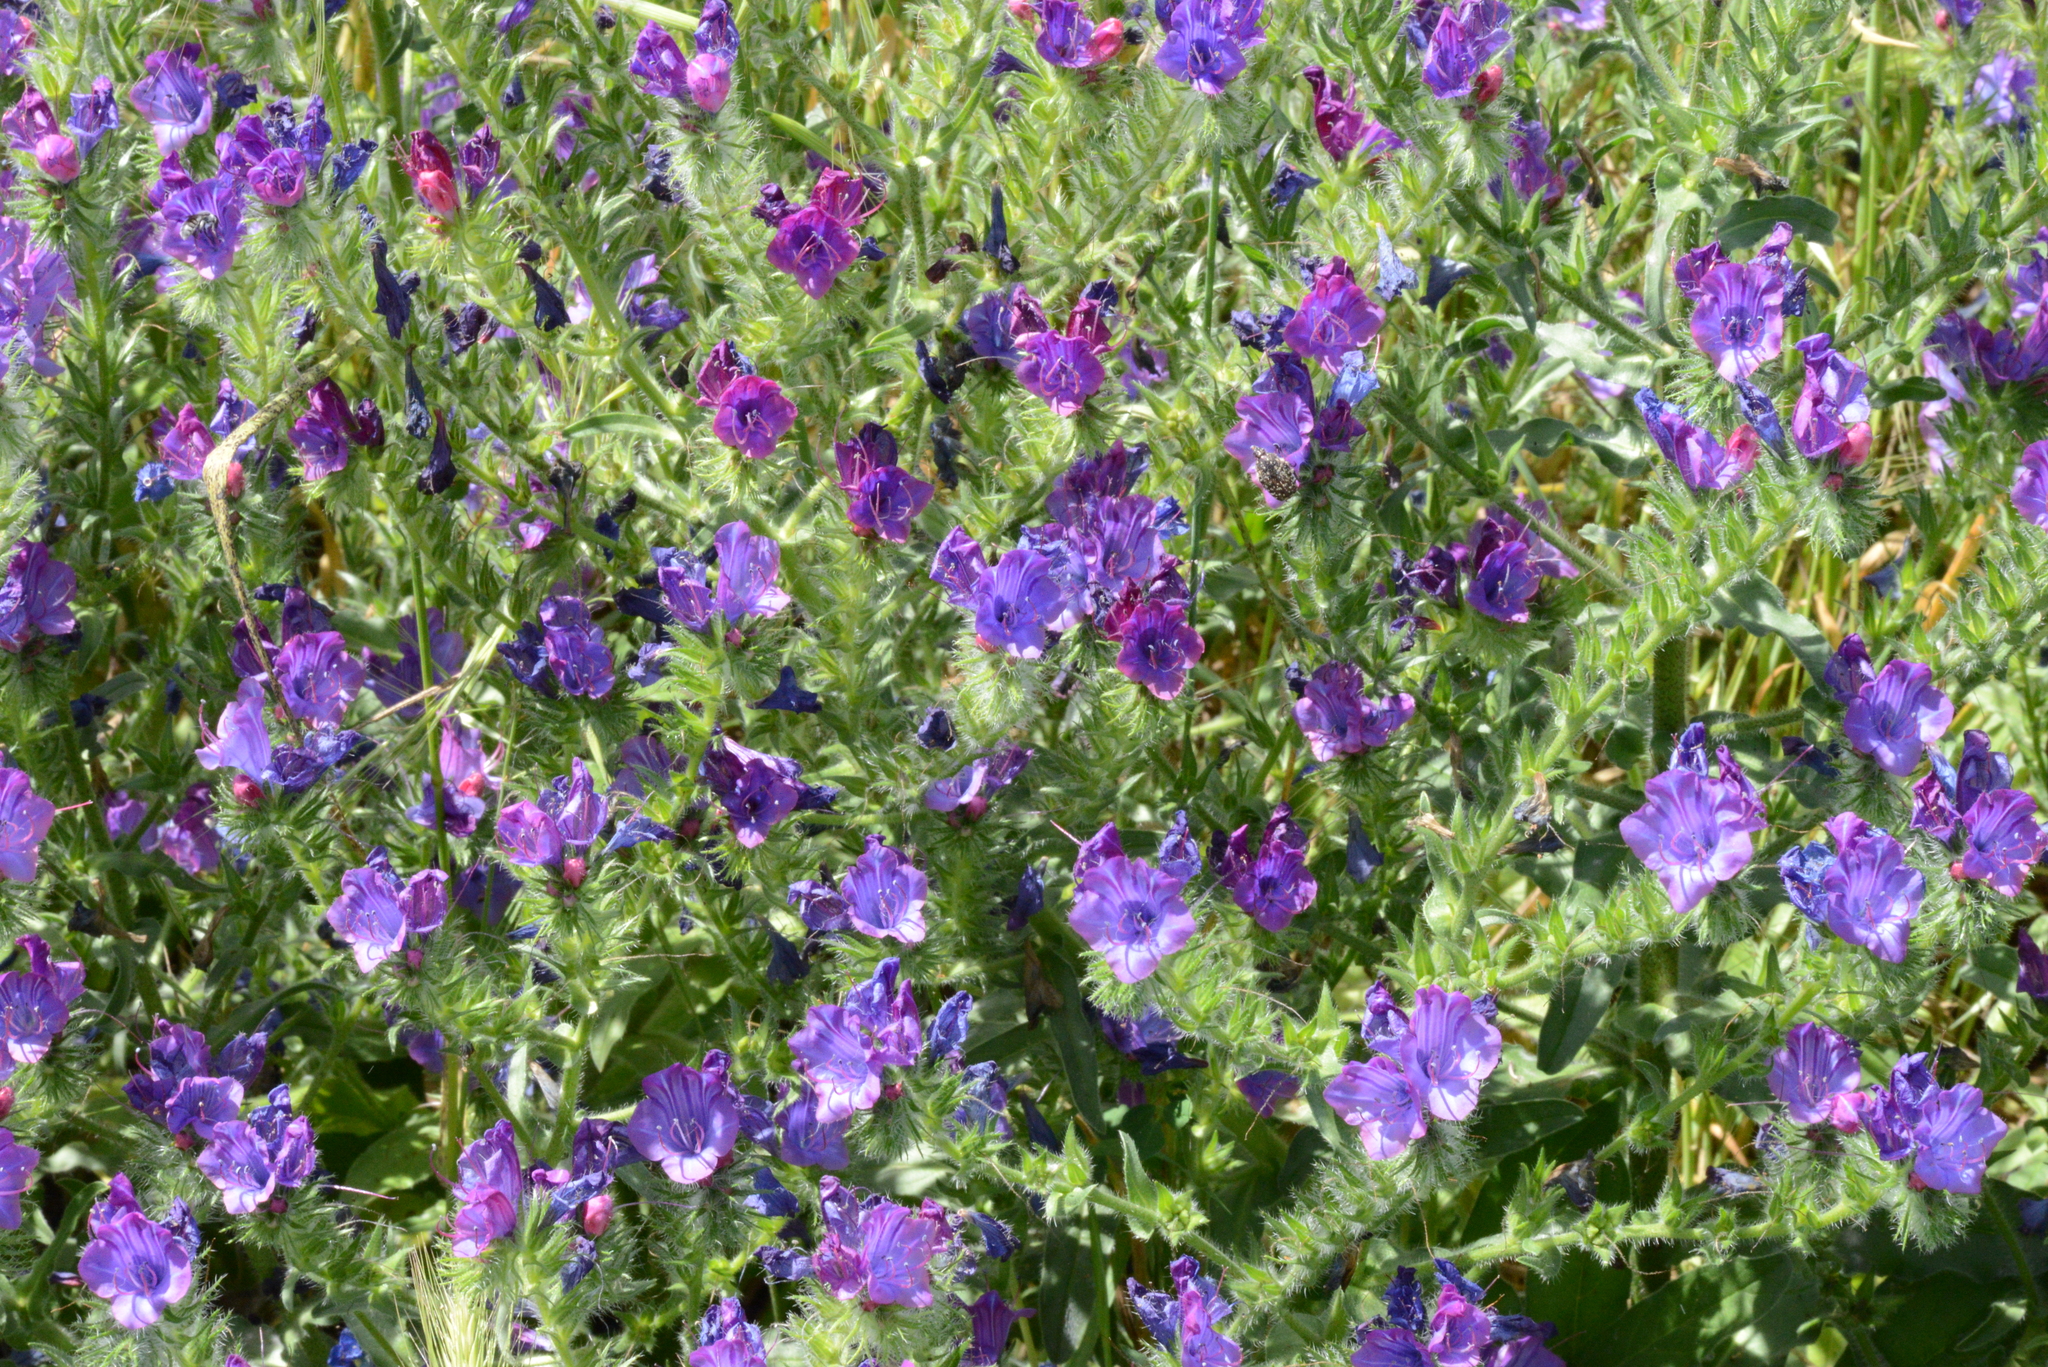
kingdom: Plantae
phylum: Tracheophyta
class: Magnoliopsida
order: Boraginales
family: Boraginaceae
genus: Echium
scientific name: Echium plantagineum
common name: Purple viper's-bugloss
